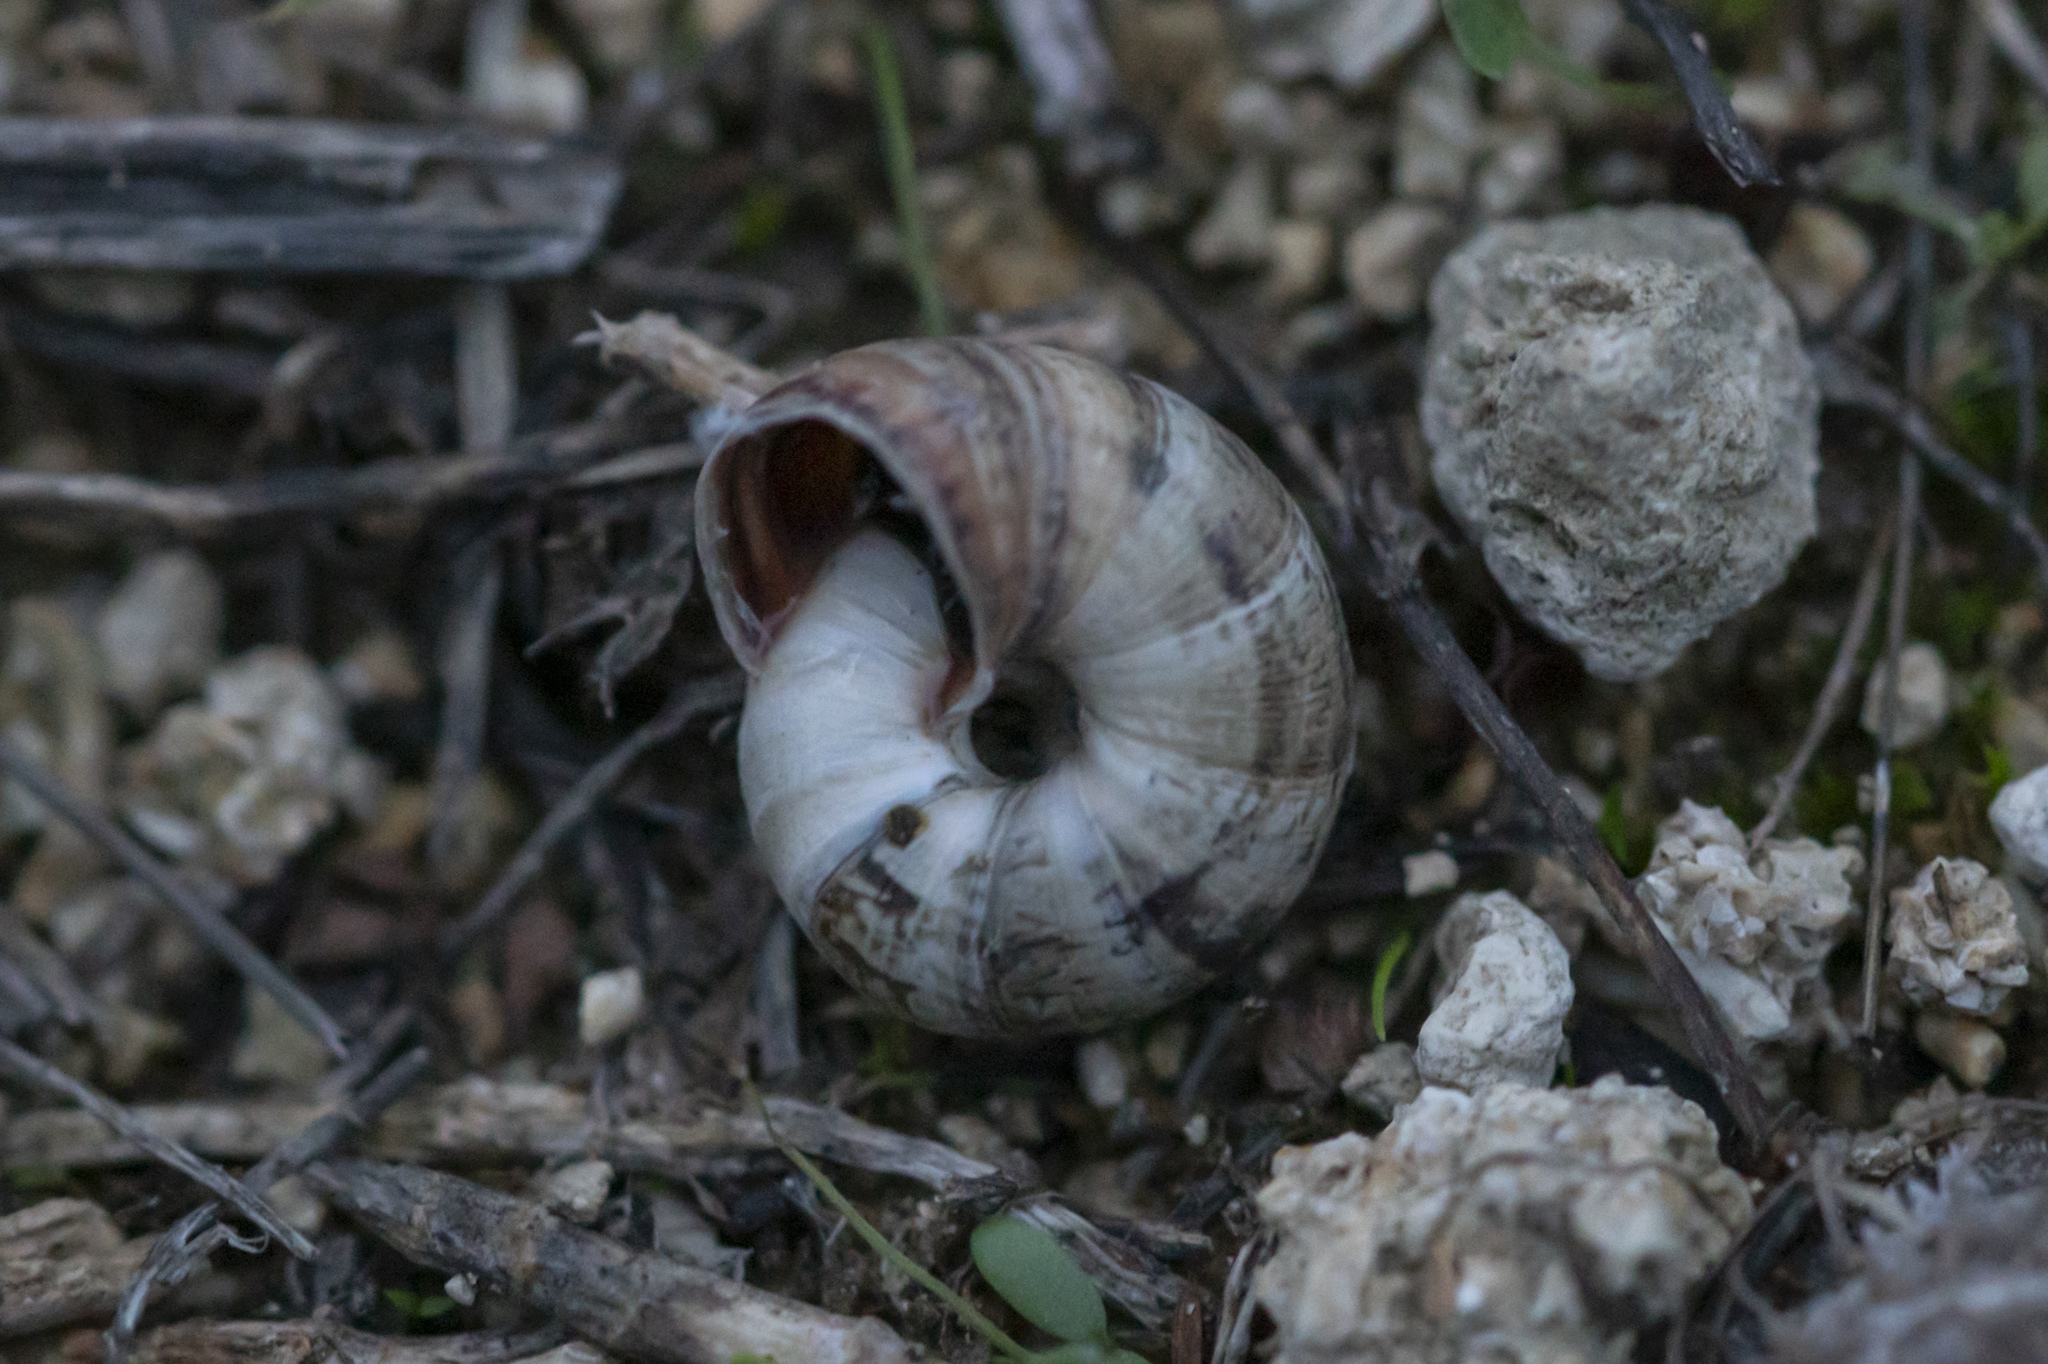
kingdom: Animalia
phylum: Mollusca
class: Gastropoda
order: Stylommatophora
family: Geomitridae
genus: Cernuella
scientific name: Cernuella virgata
